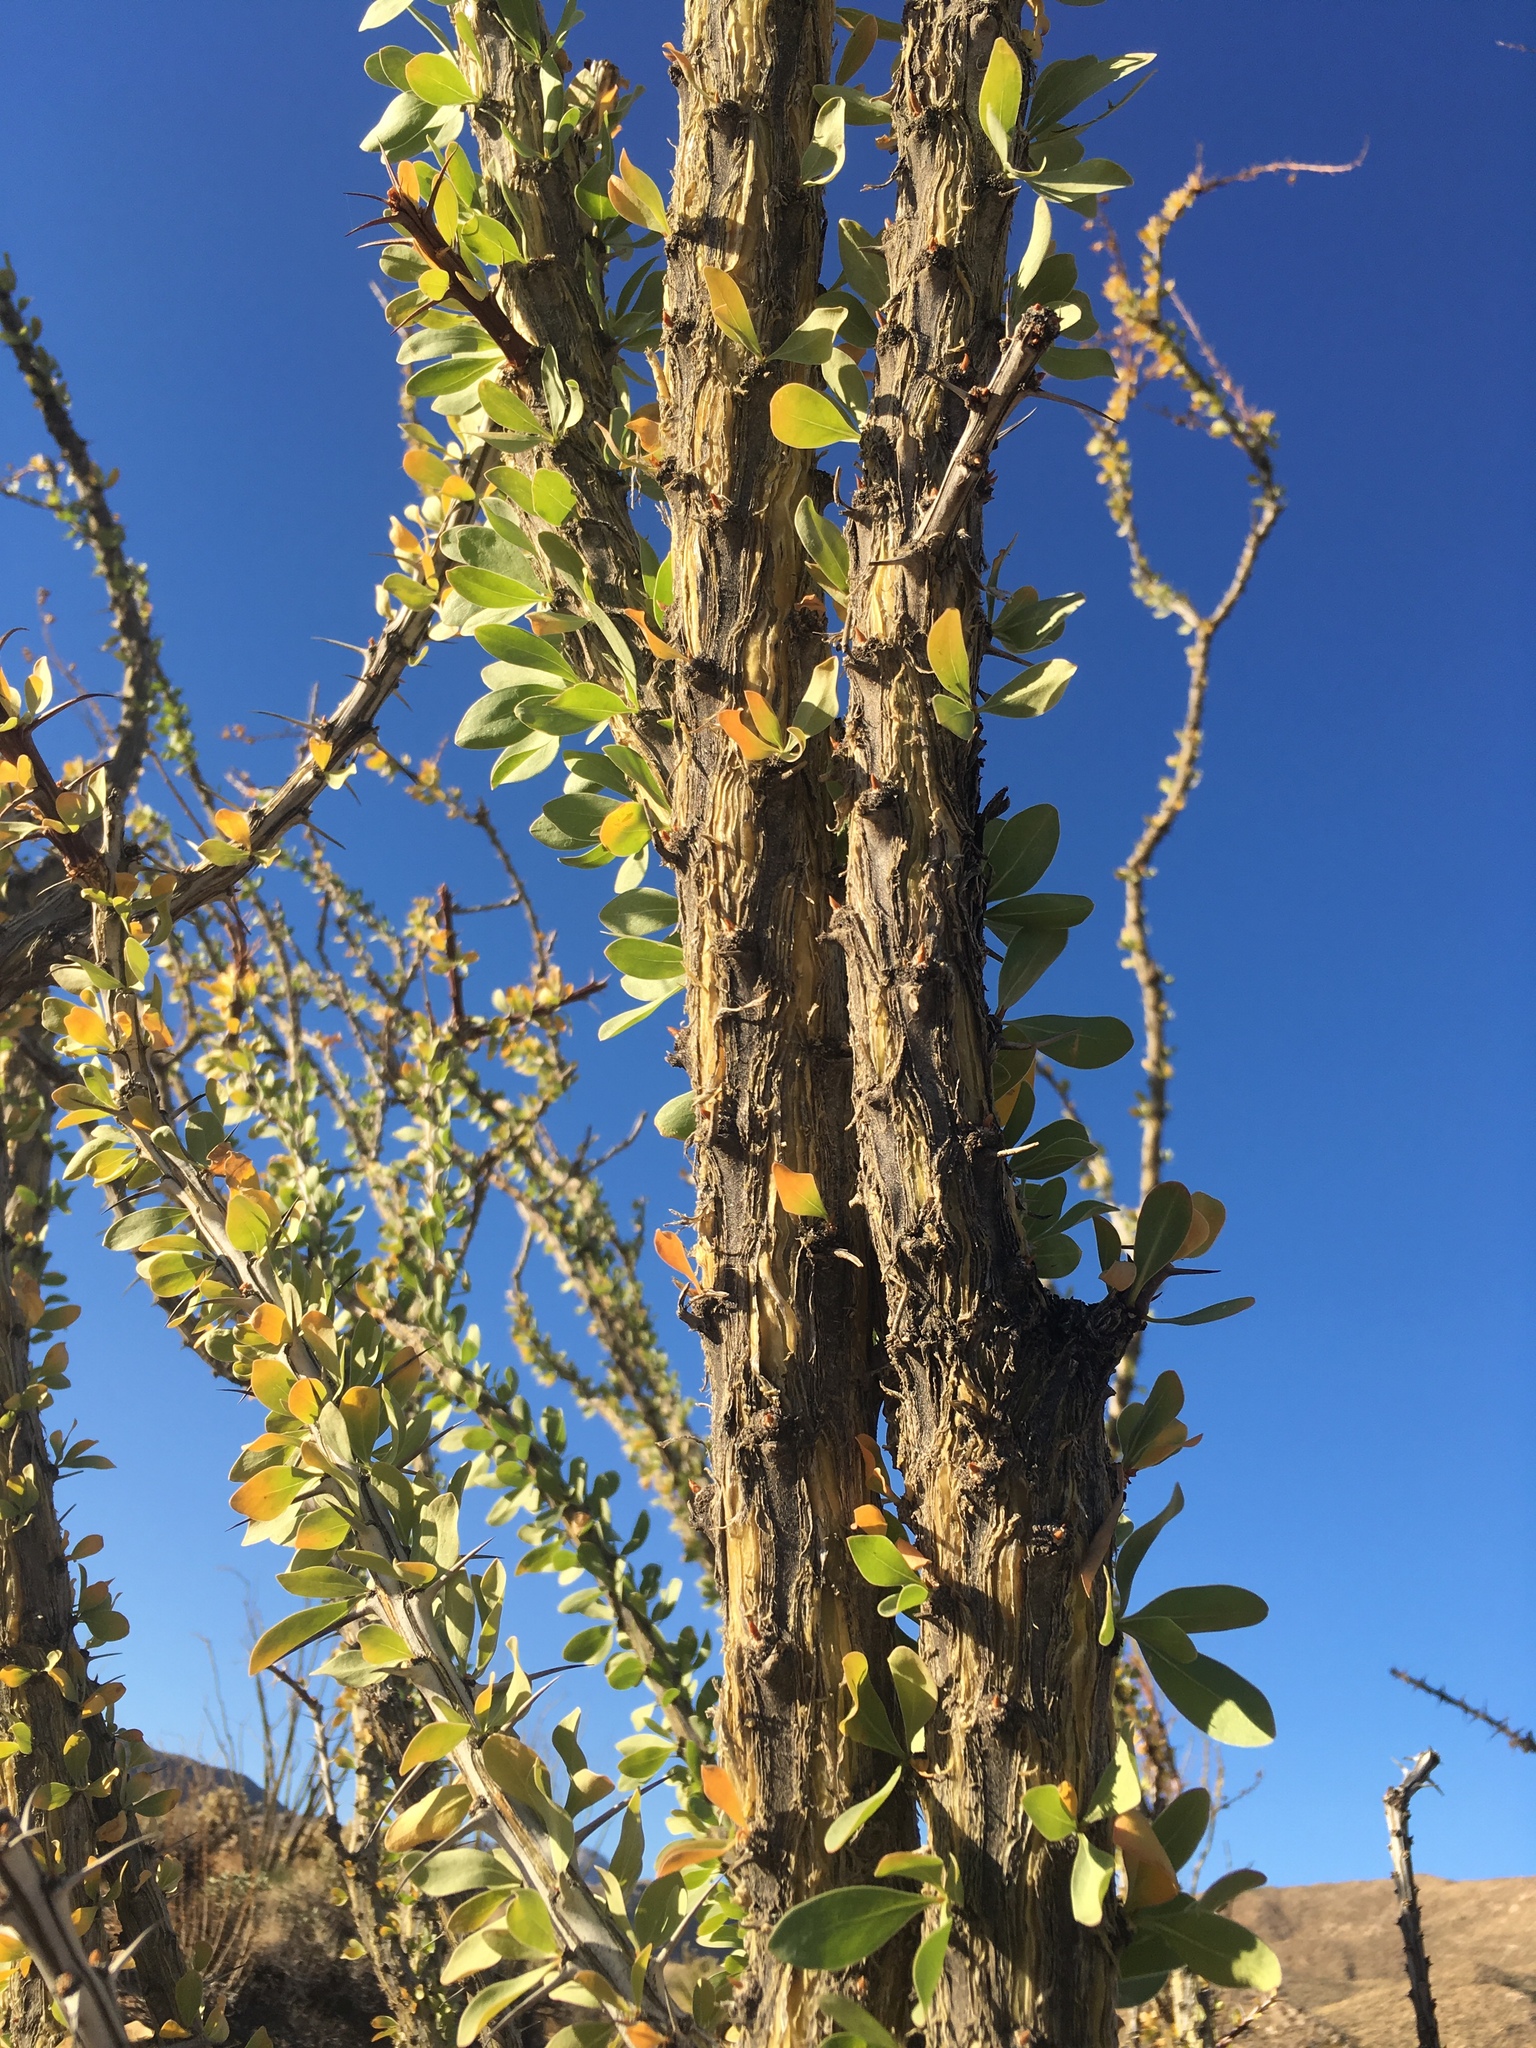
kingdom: Plantae
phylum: Tracheophyta
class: Magnoliopsida
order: Ericales
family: Fouquieriaceae
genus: Fouquieria
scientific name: Fouquieria splendens
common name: Vine-cactus
